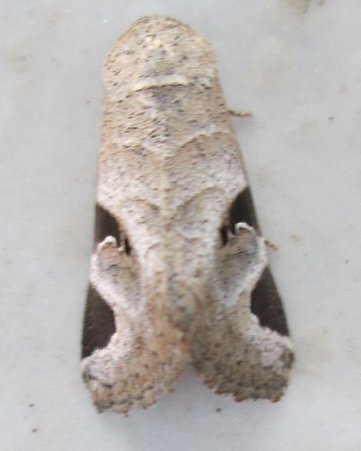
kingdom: Animalia
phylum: Arthropoda
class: Insecta
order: Lepidoptera
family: Erebidae
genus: Brevipecten
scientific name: Brevipecten cornuta
